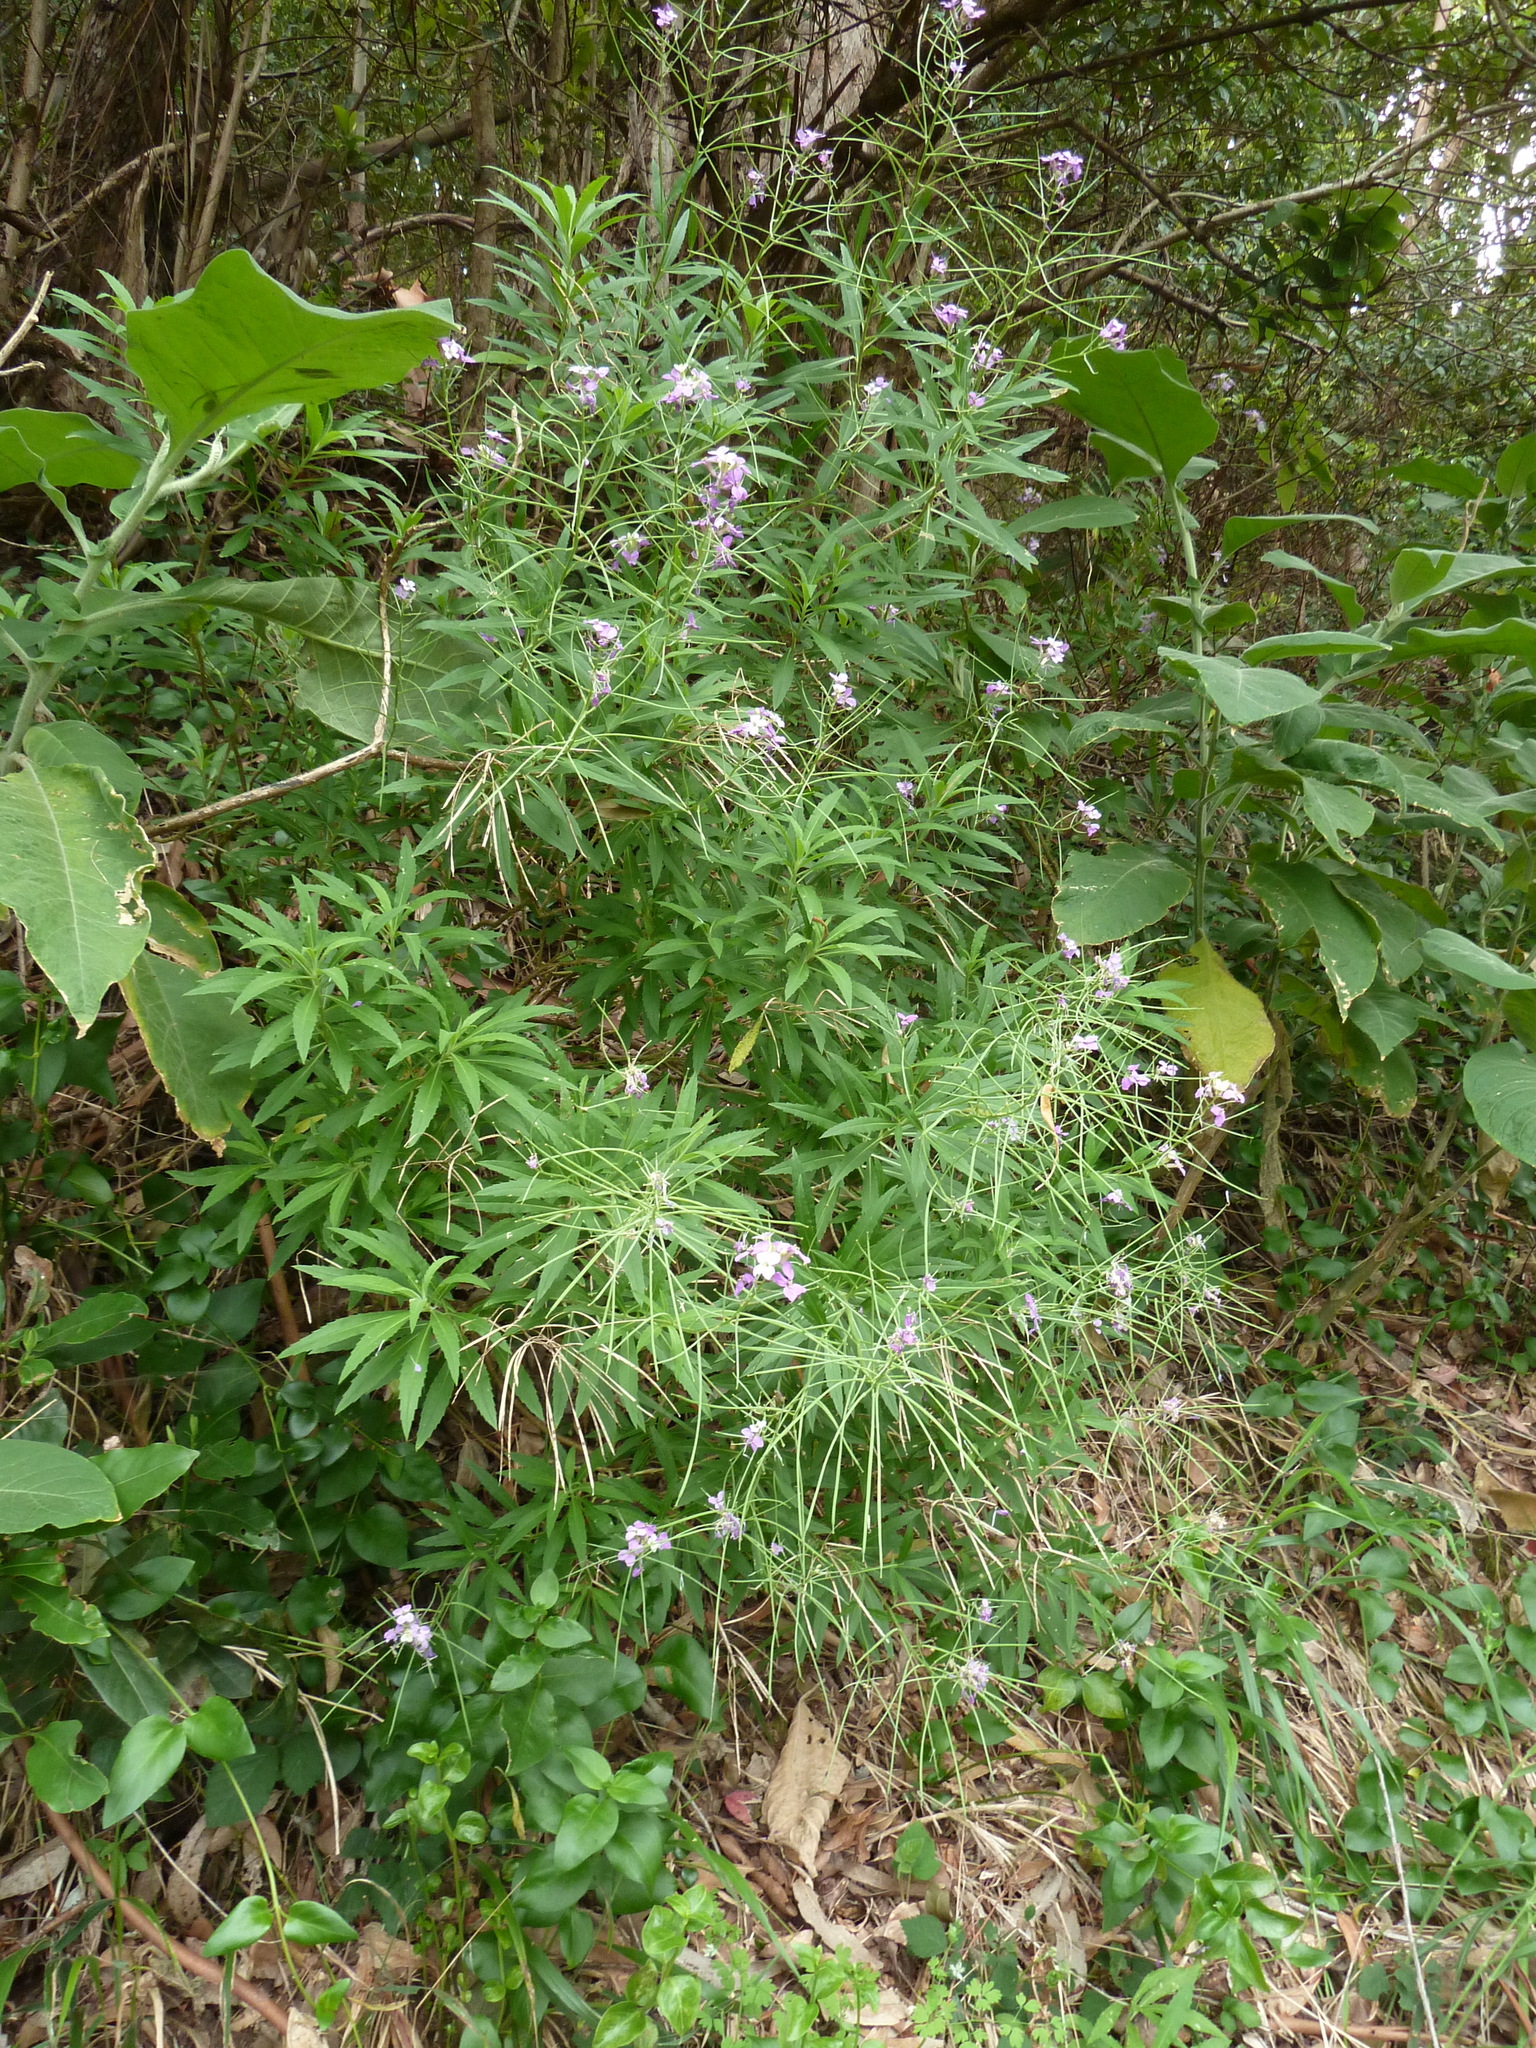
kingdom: Plantae
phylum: Tracheophyta
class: Magnoliopsida
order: Brassicales
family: Brassicaceae
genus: Erysimum
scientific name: Erysimum bicolor
